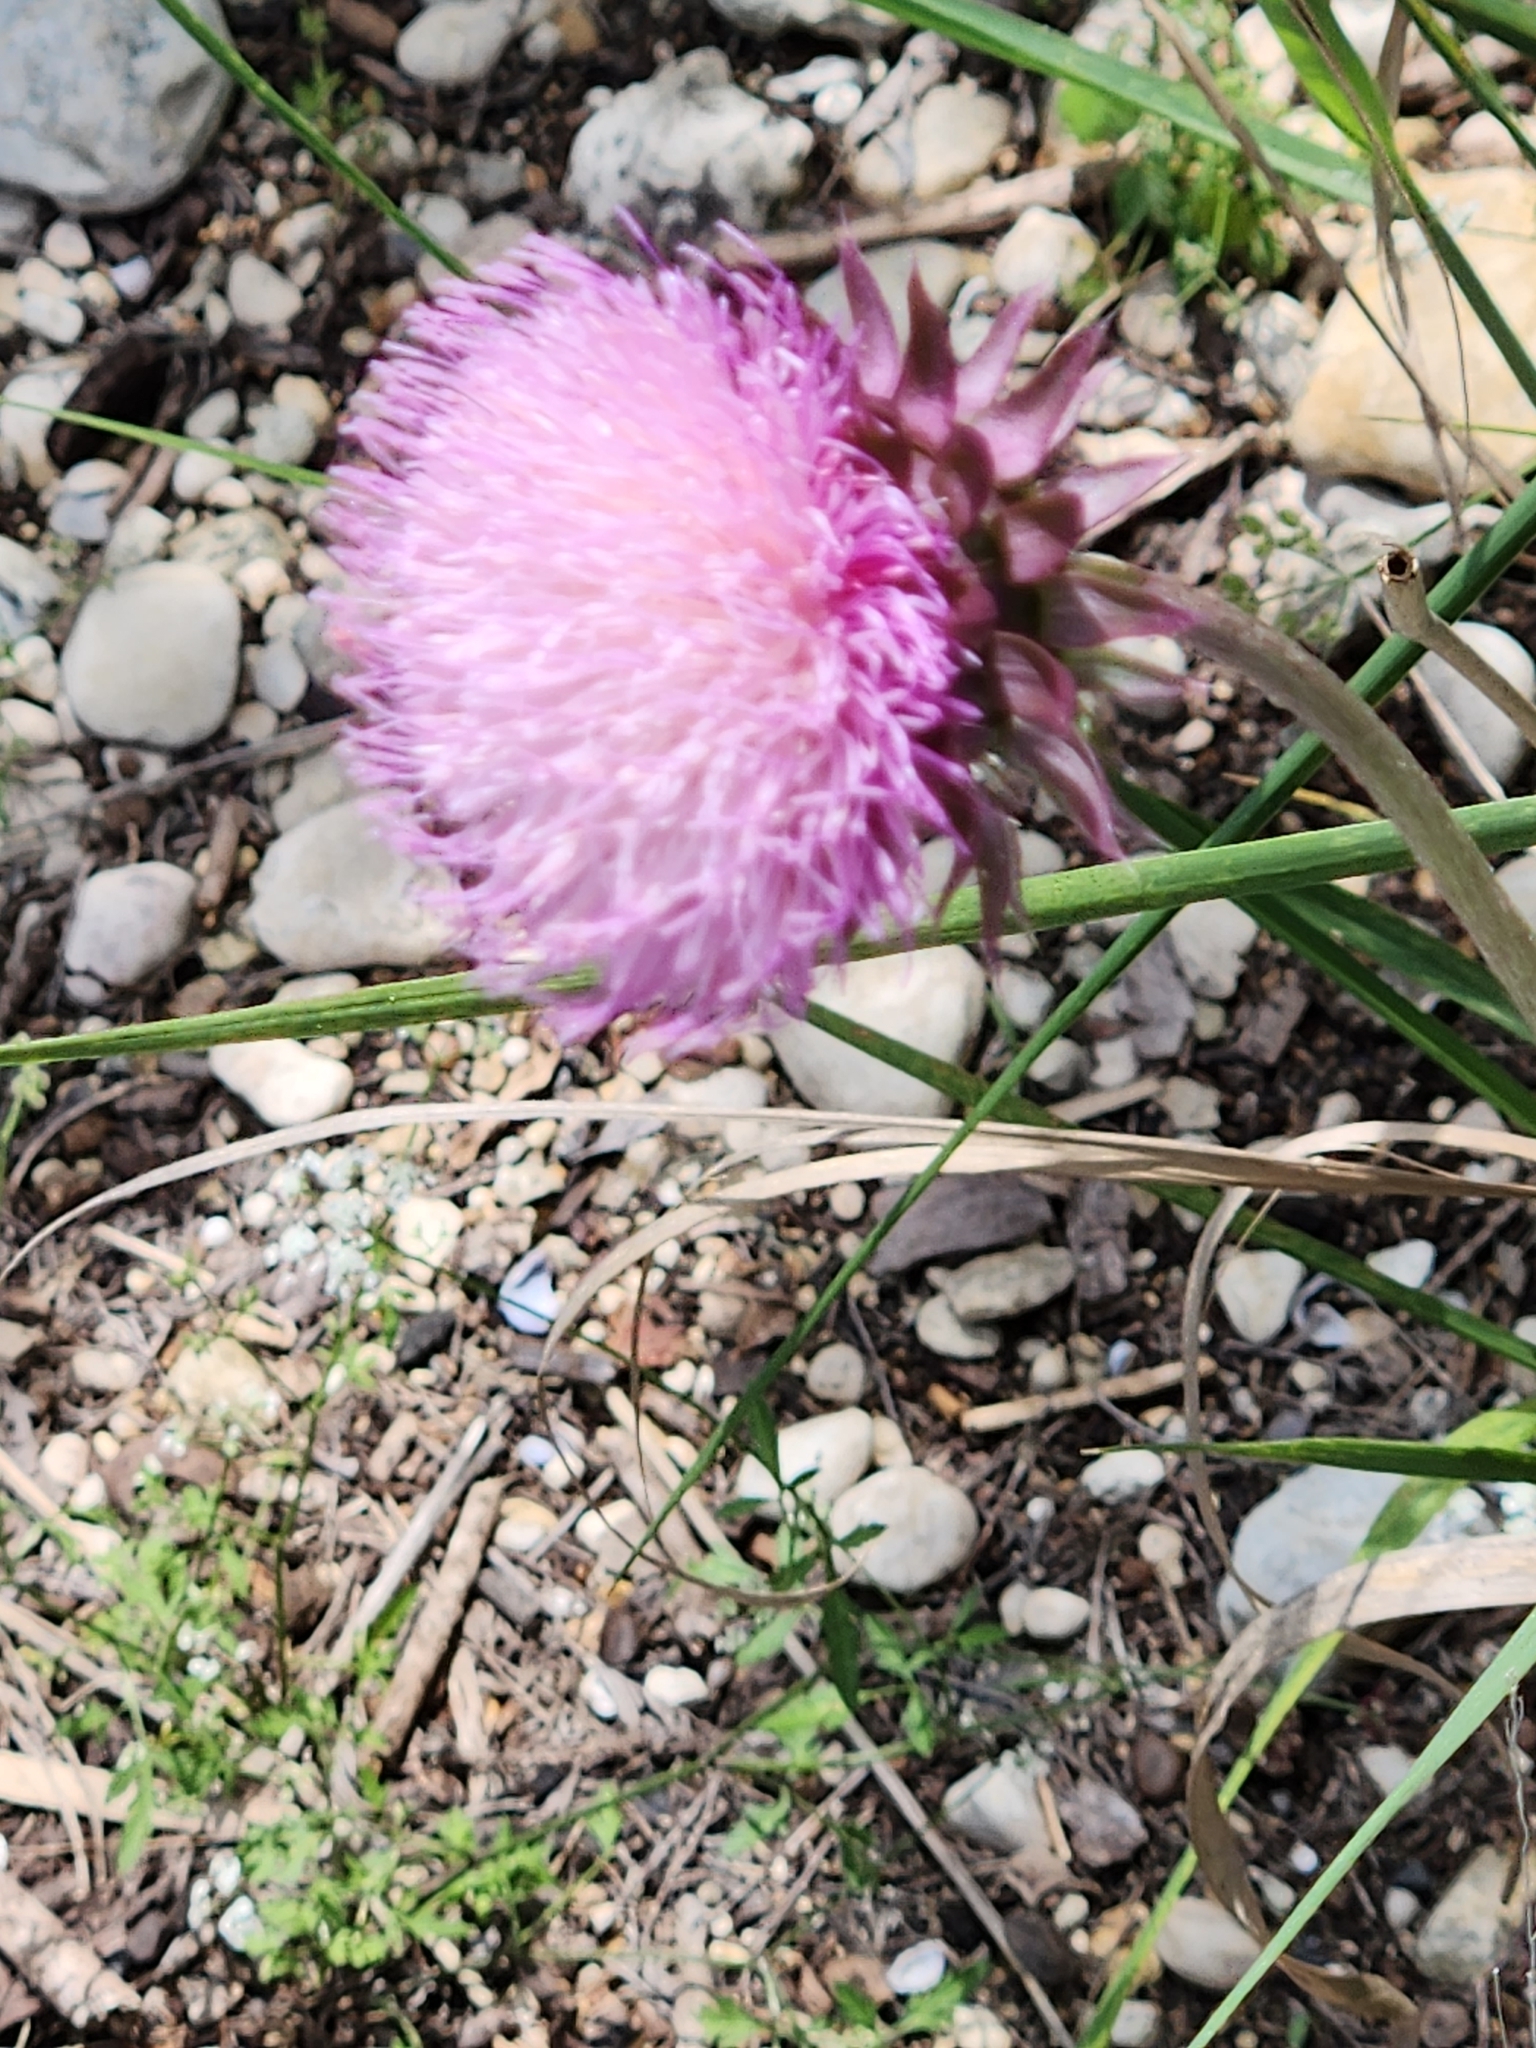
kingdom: Plantae
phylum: Tracheophyta
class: Magnoliopsida
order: Asterales
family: Asteraceae
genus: Carduus
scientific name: Carduus nutans
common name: Musk thistle
